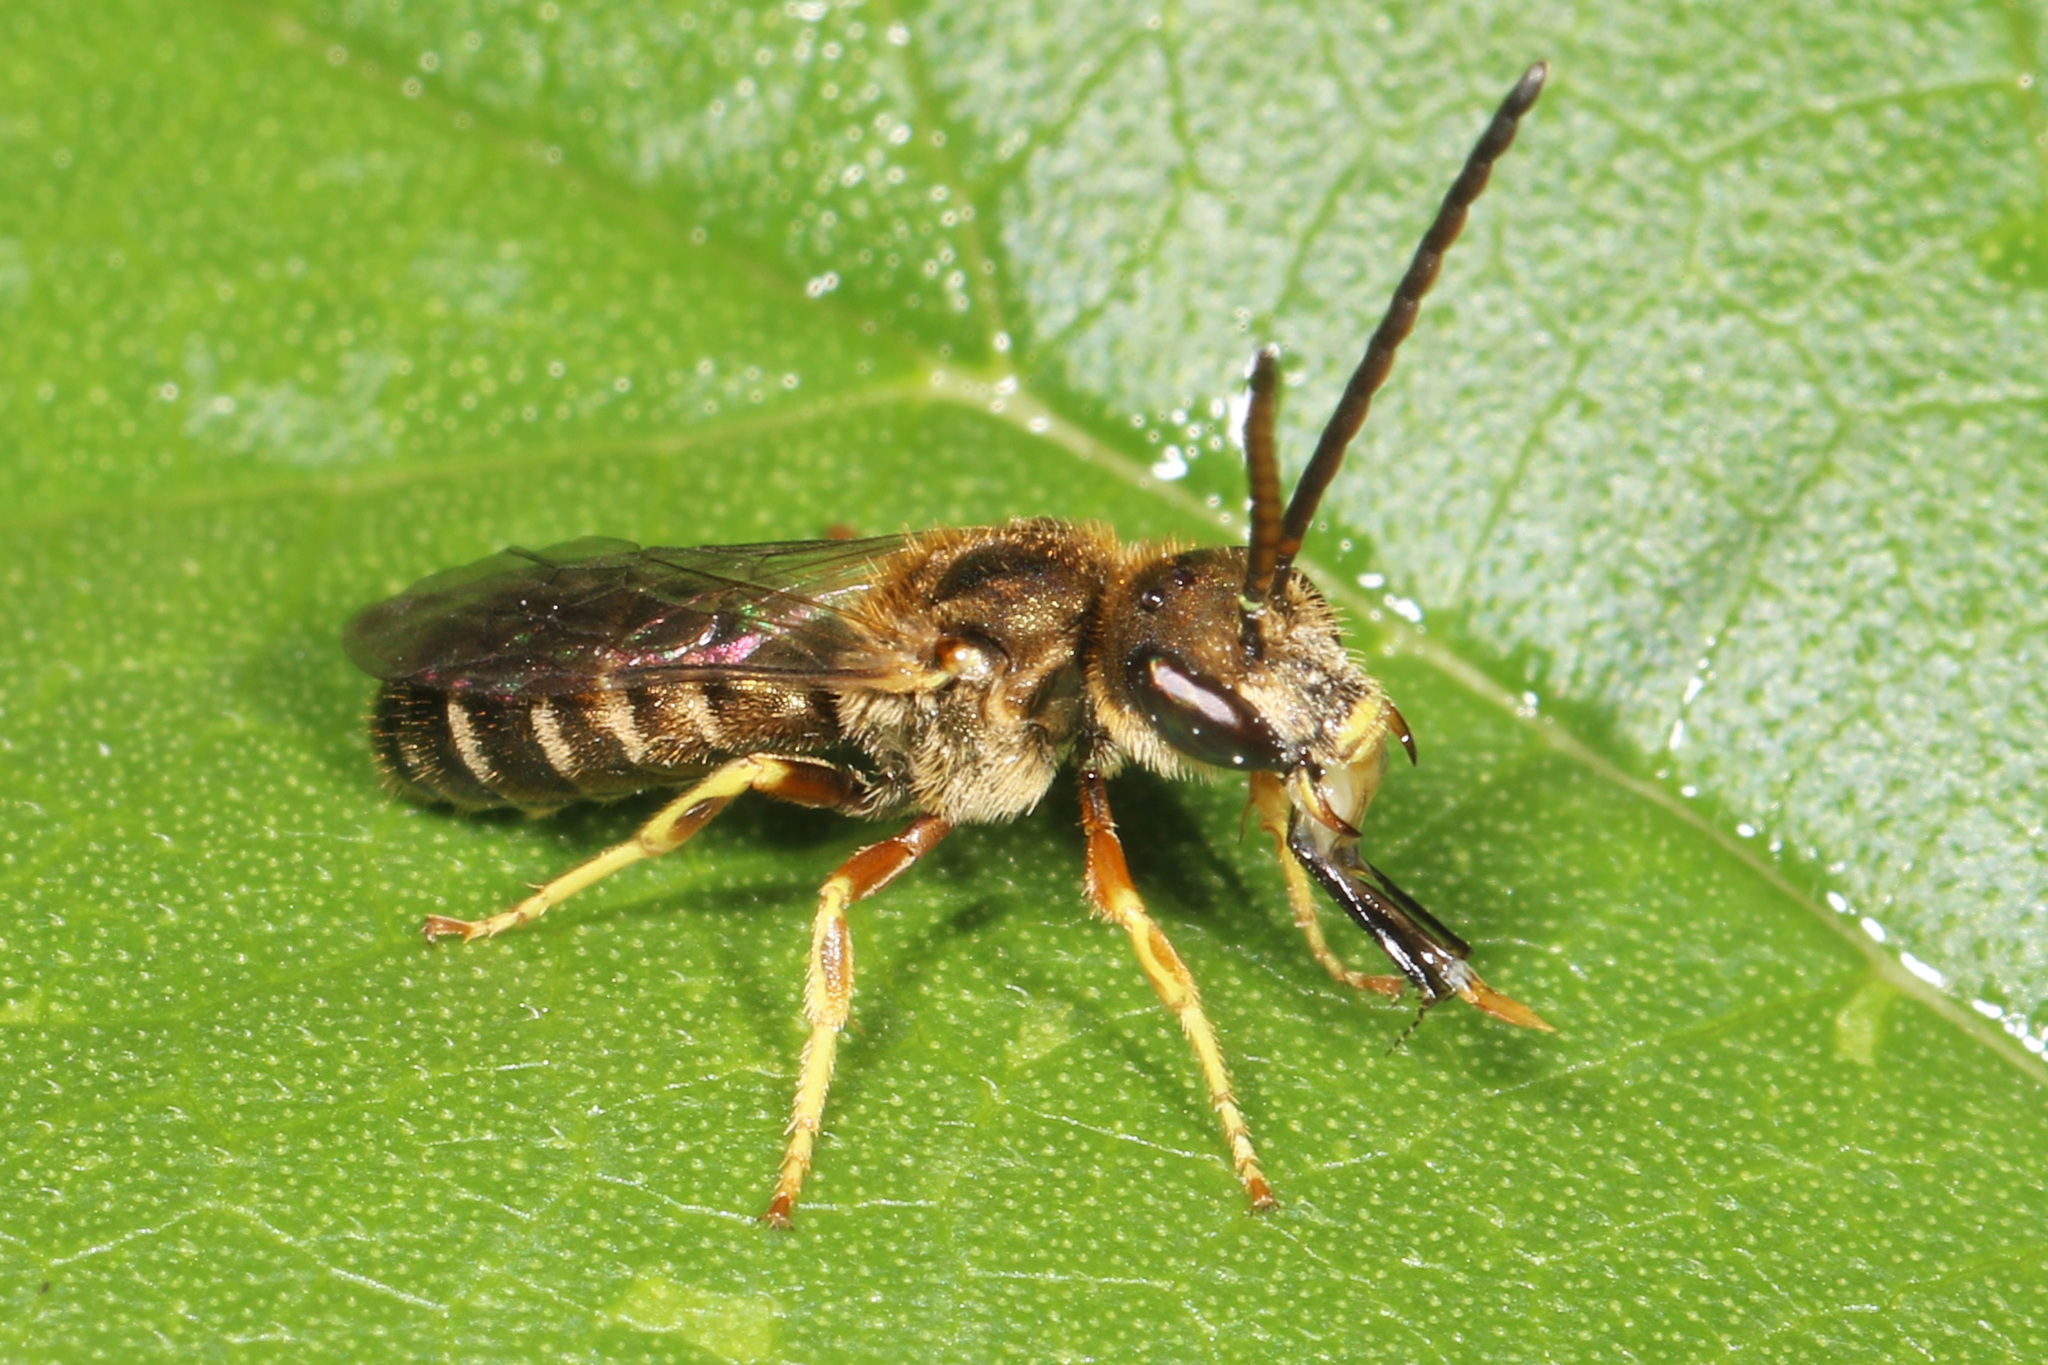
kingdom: Animalia
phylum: Arthropoda
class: Insecta
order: Hymenoptera
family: Halictidae
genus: Halictus
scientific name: Halictus confusus
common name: Southern bronze furrow bee
